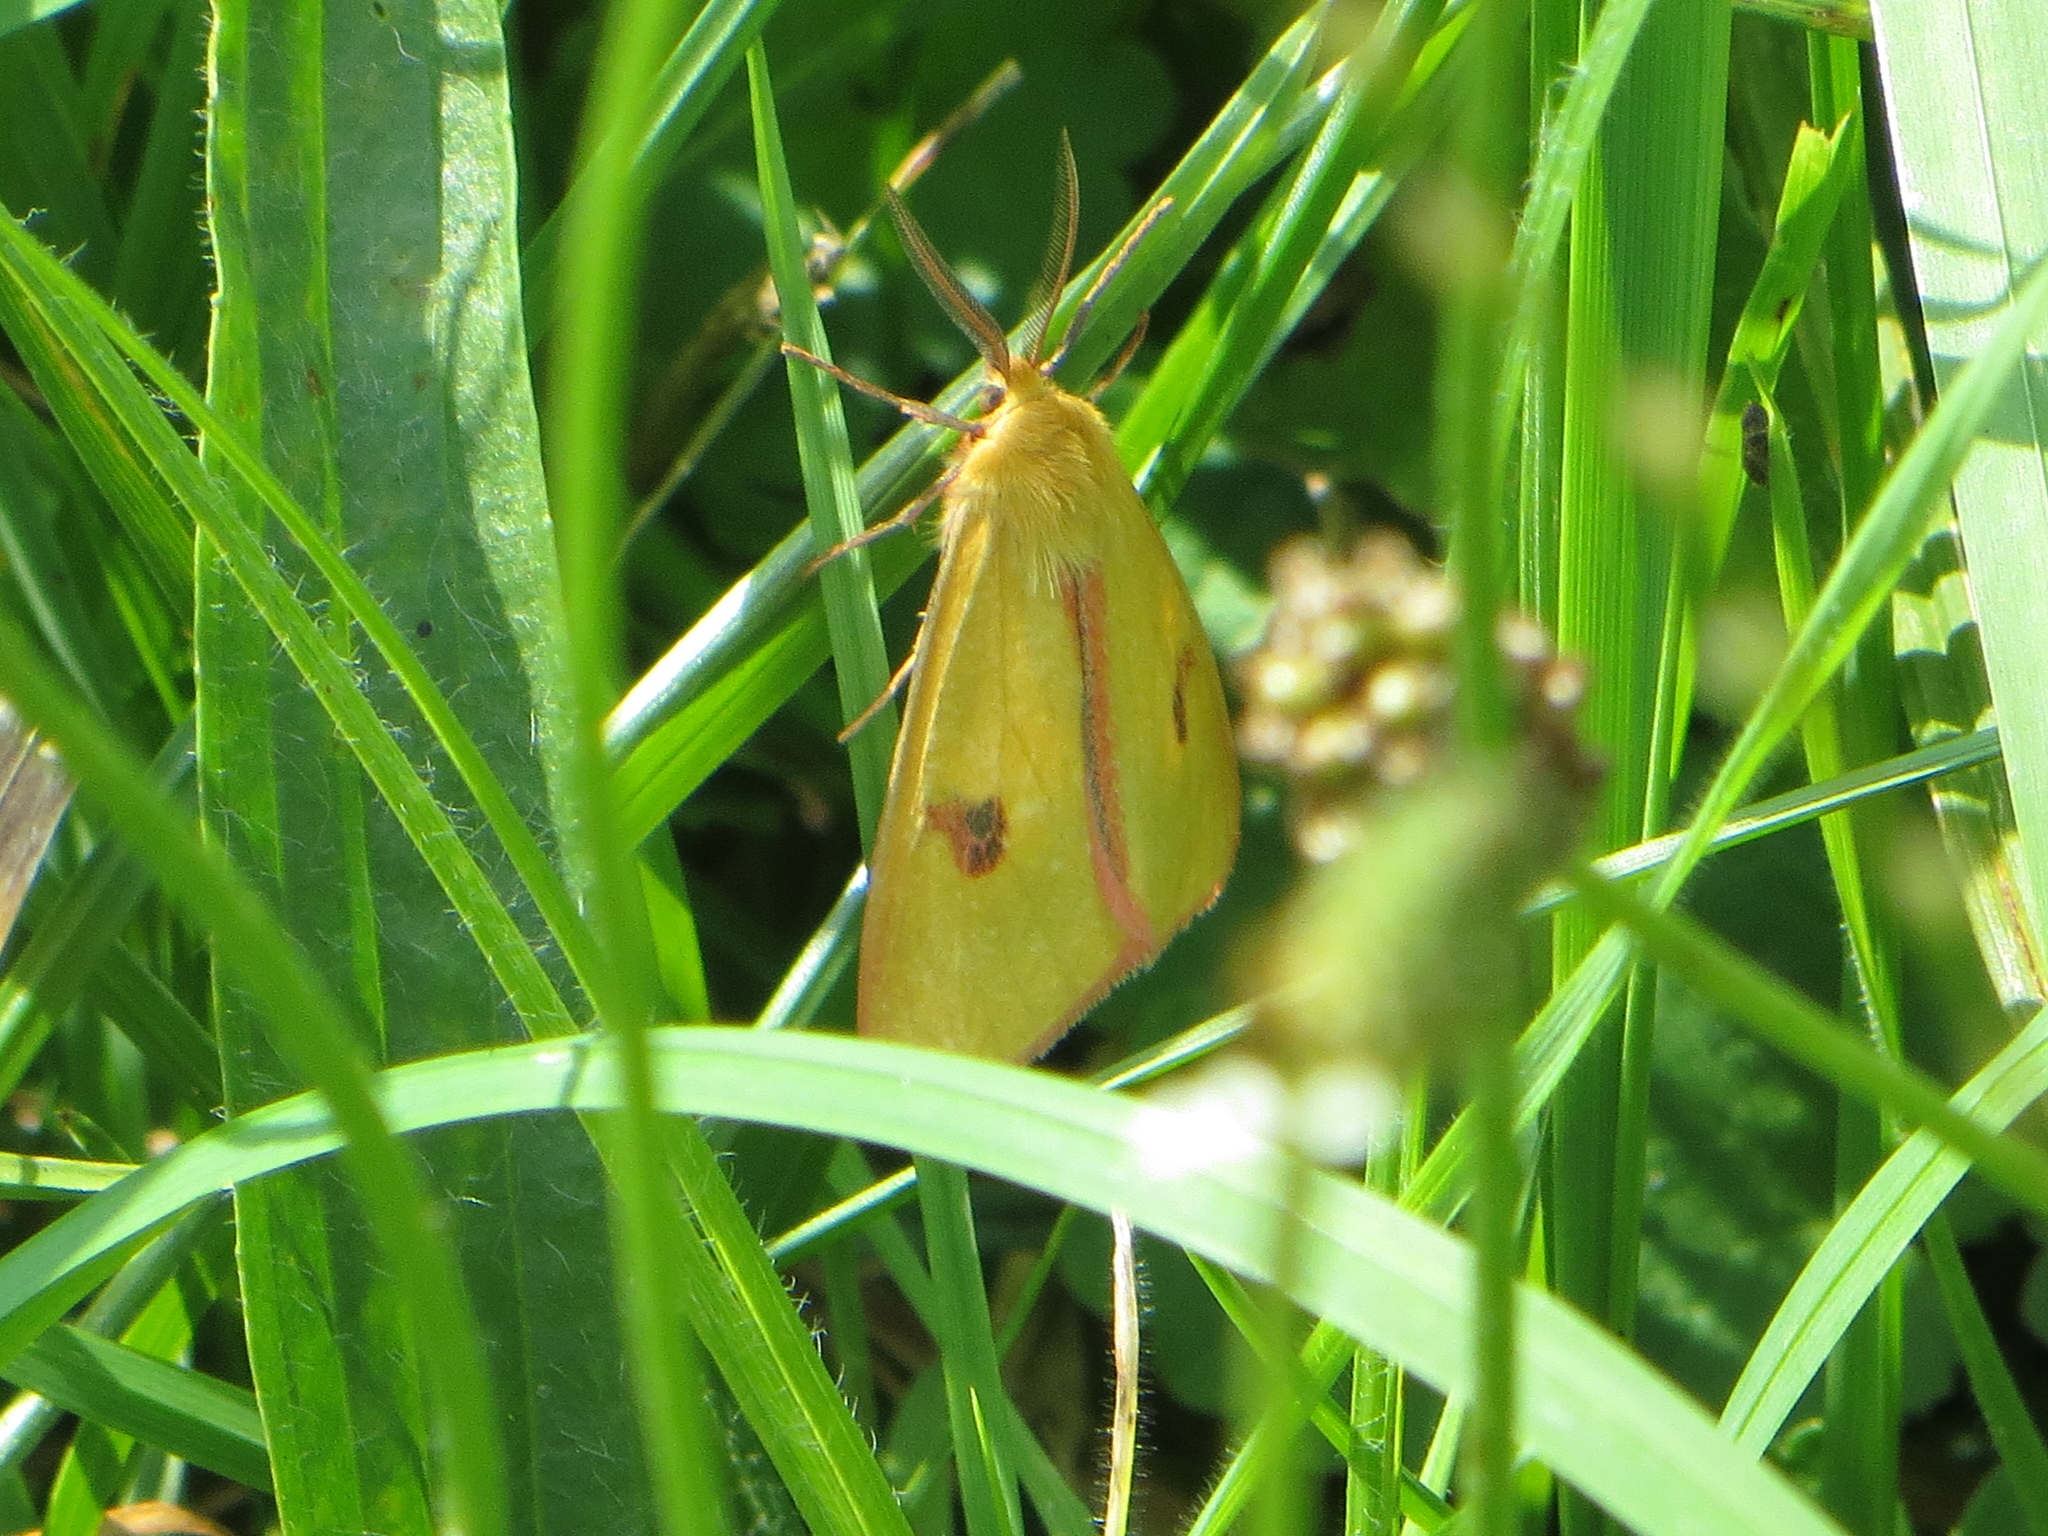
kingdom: Animalia
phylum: Arthropoda
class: Insecta
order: Lepidoptera
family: Erebidae
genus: Diacrisia
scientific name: Diacrisia sannio
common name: Clouded buff
